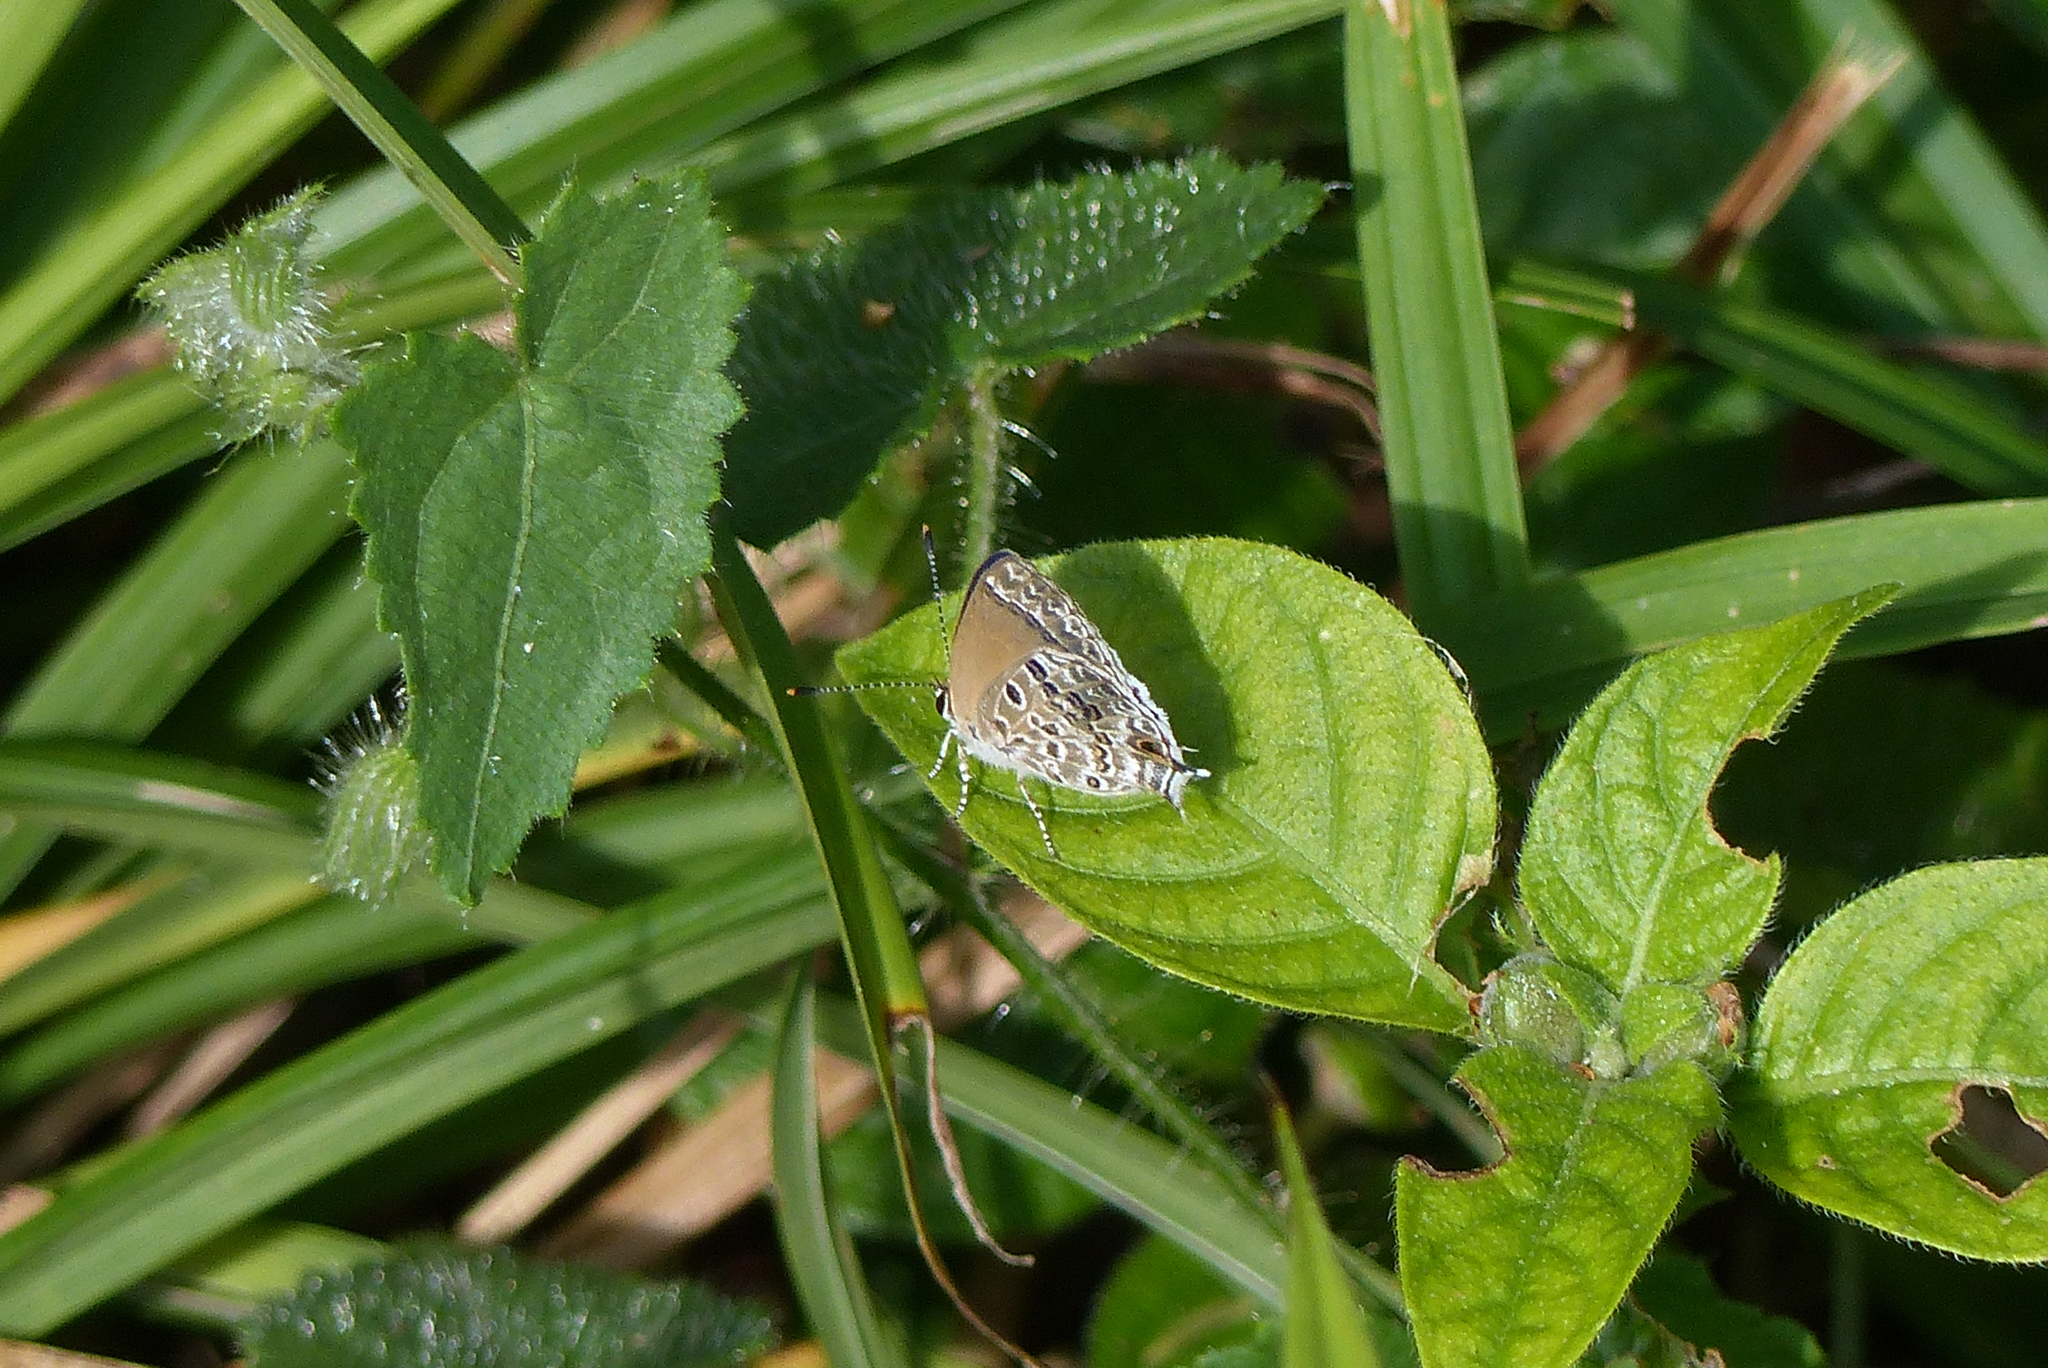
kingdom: Animalia
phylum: Arthropoda
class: Insecta
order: Lepidoptera
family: Lycaenidae
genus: Strymon
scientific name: Strymon astiocha
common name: Gray-spotted scrub-hairstreak
